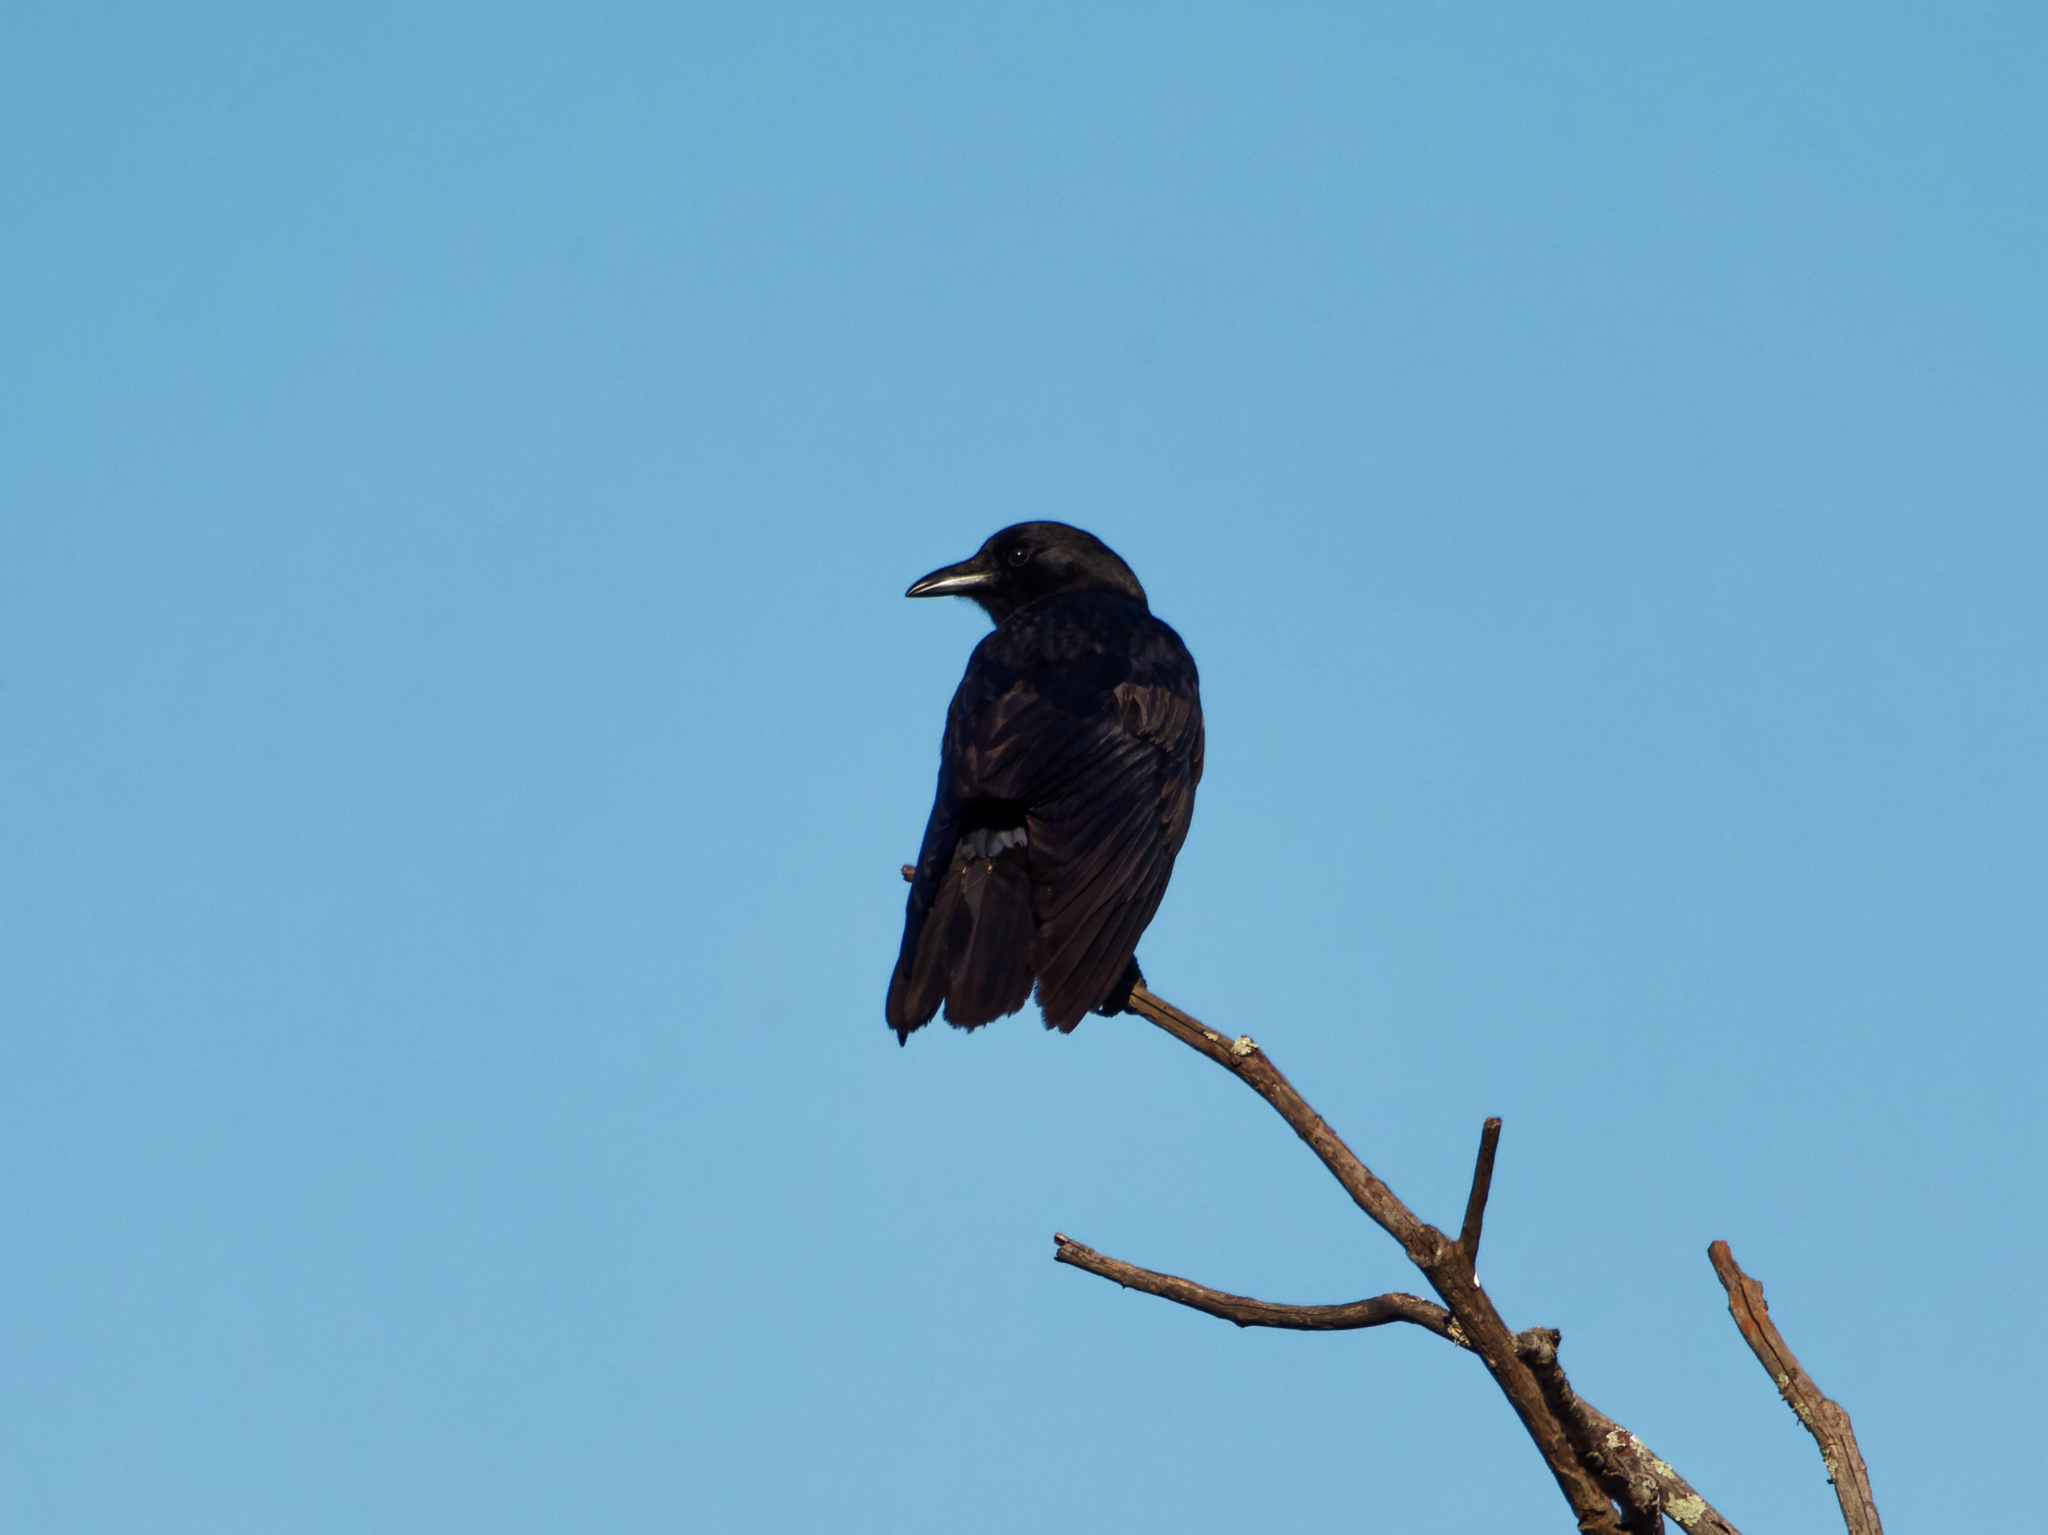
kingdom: Animalia
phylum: Chordata
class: Aves
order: Passeriformes
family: Corvidae
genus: Corvus
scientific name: Corvus brachyrhynchos
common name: American crow
